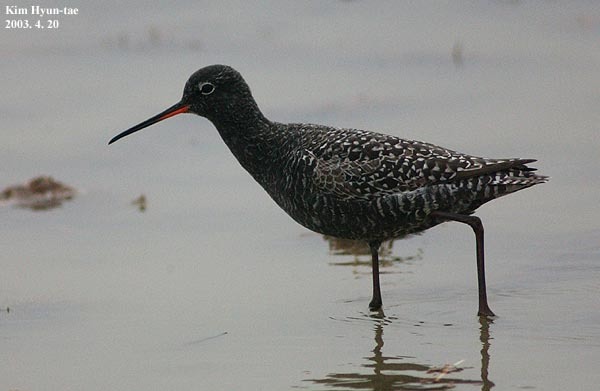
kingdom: Animalia
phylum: Chordata
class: Aves
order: Charadriiformes
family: Scolopacidae
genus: Tringa
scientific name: Tringa erythropus
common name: Spotted redshank
